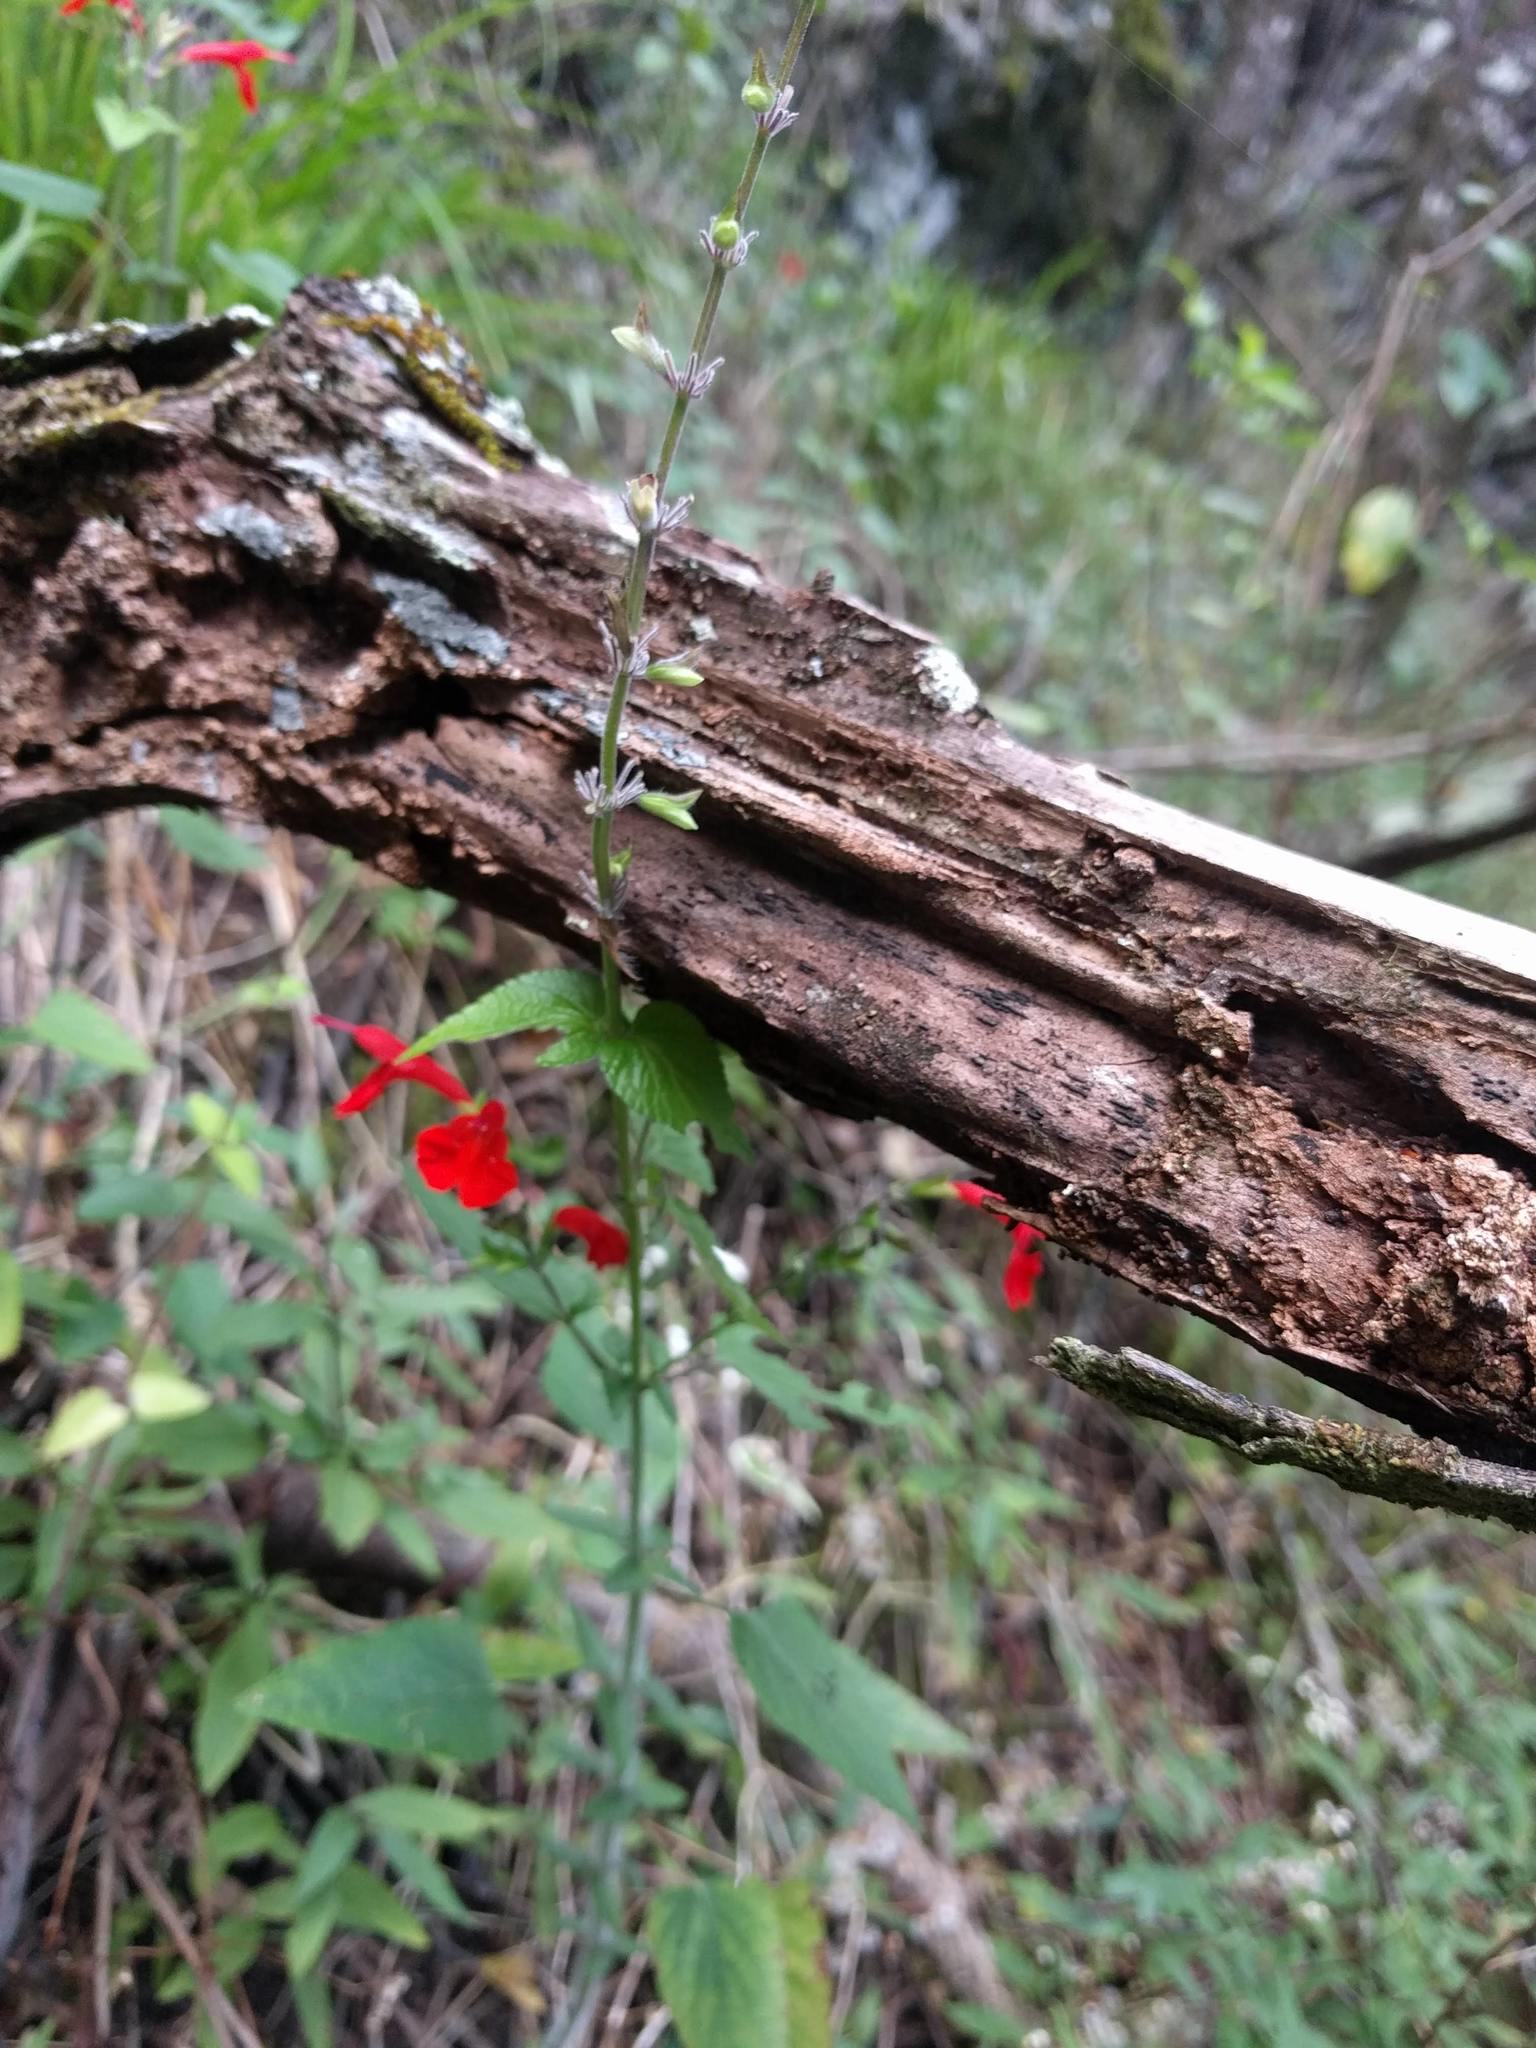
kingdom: Plantae
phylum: Tracheophyta
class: Magnoliopsida
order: Lamiales
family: Lamiaceae
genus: Salvia
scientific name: Salvia coccinea
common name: Blood sage
